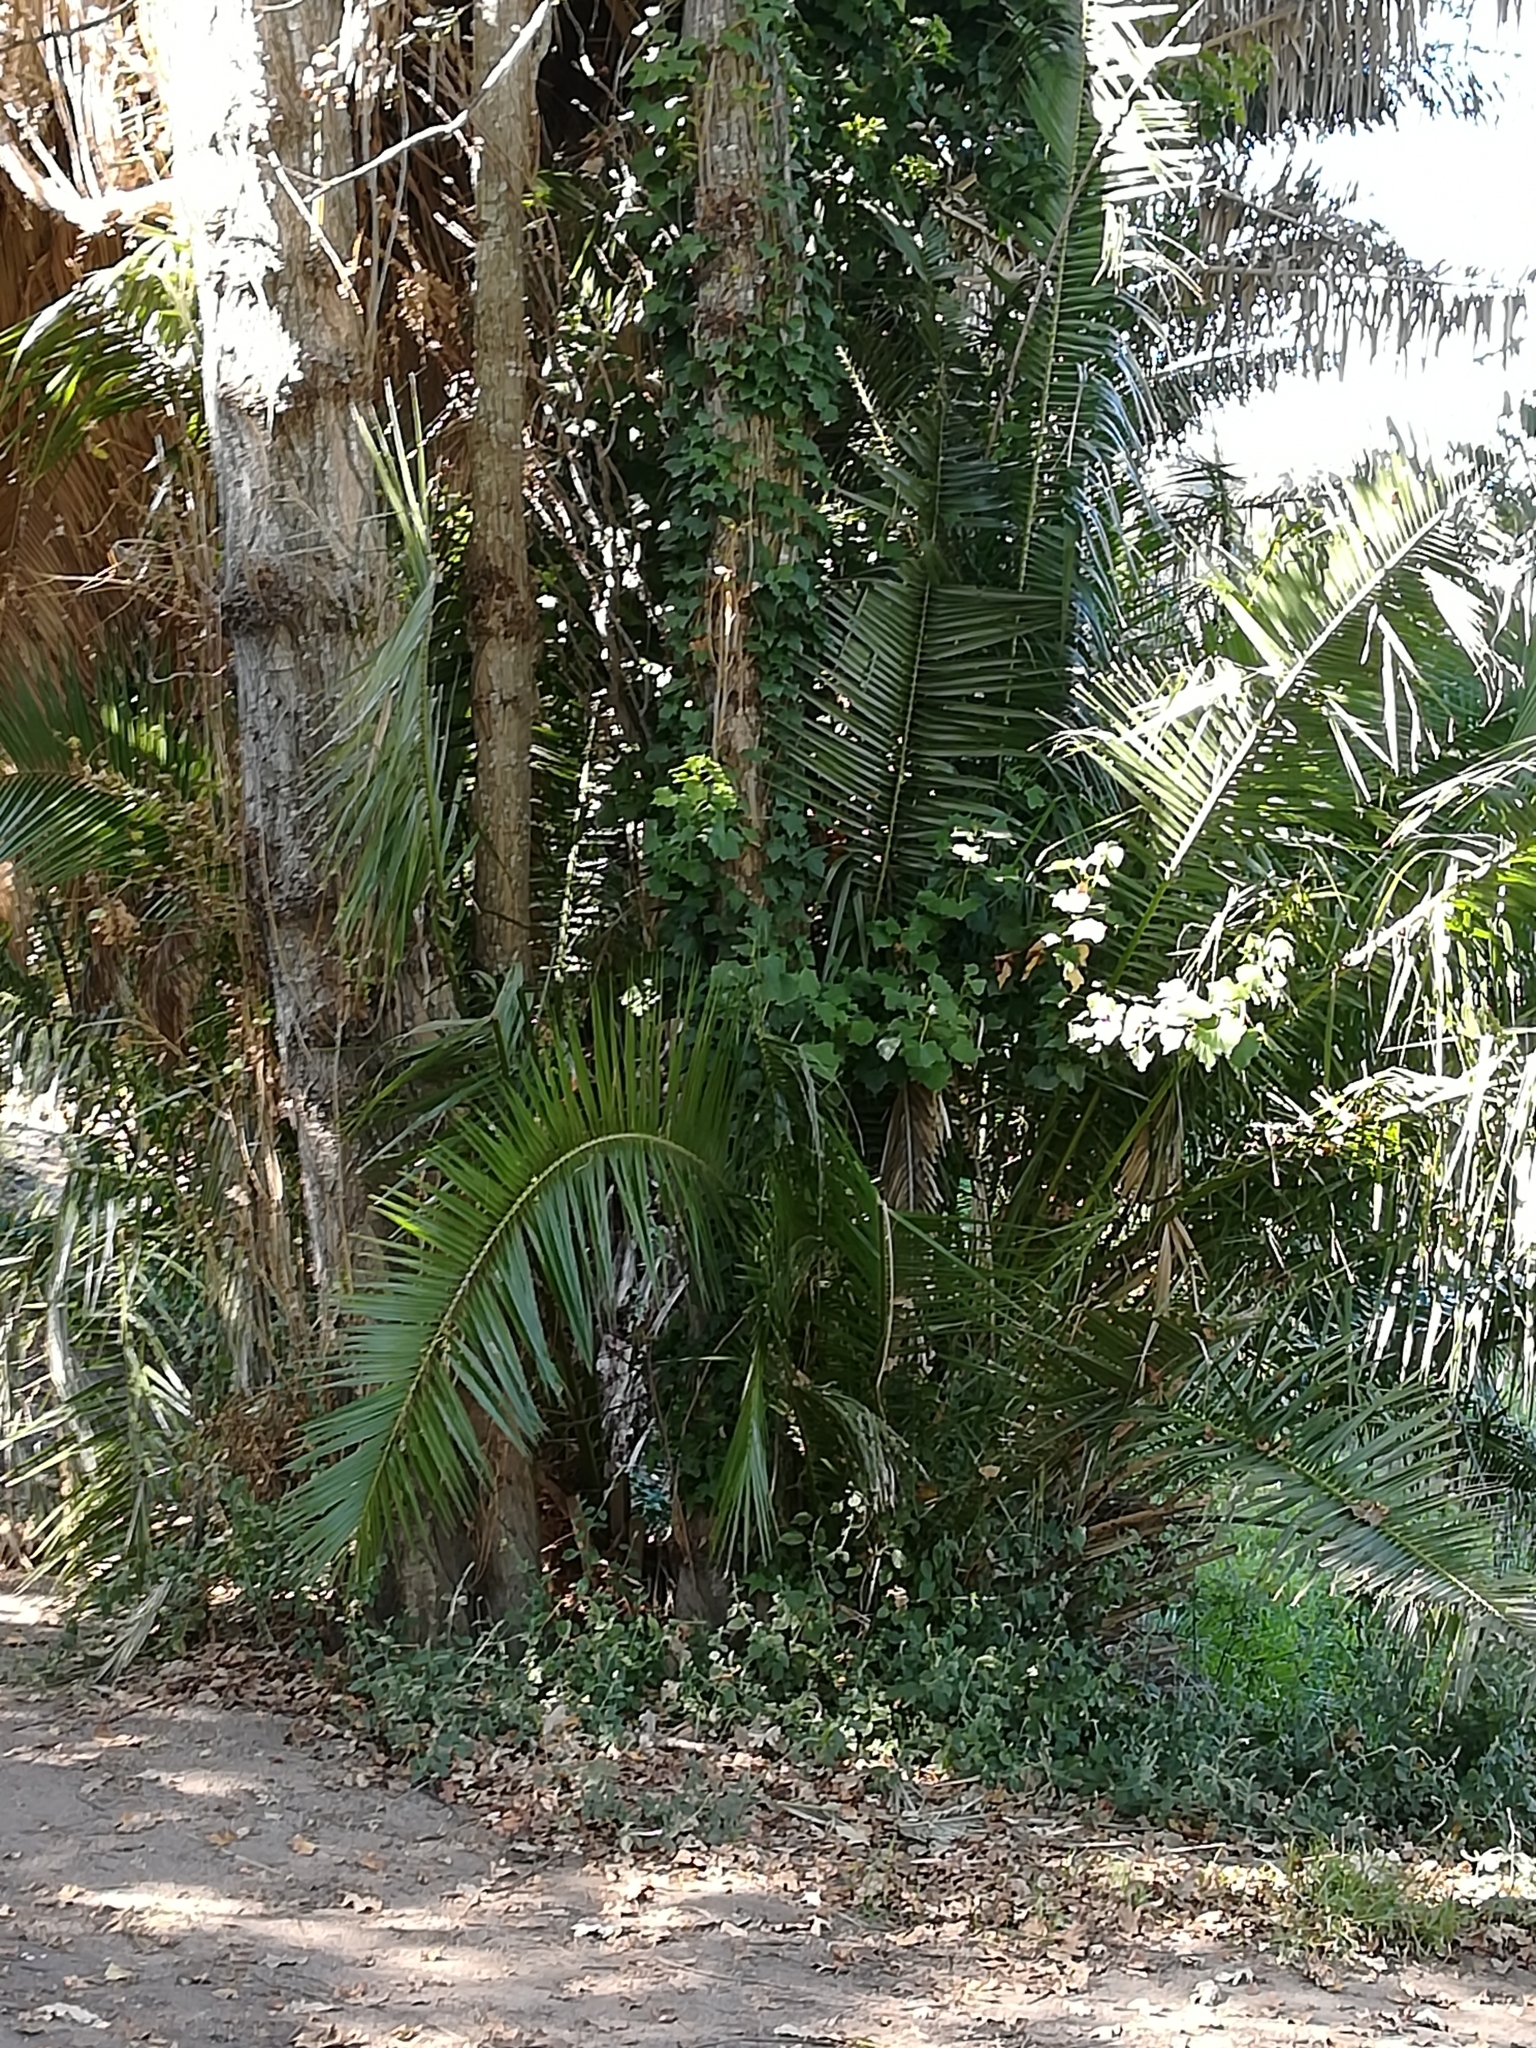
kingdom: Plantae
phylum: Tracheophyta
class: Liliopsida
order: Arecales
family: Arecaceae
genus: Phoenix
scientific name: Phoenix reclinata
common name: Senegal date palm
